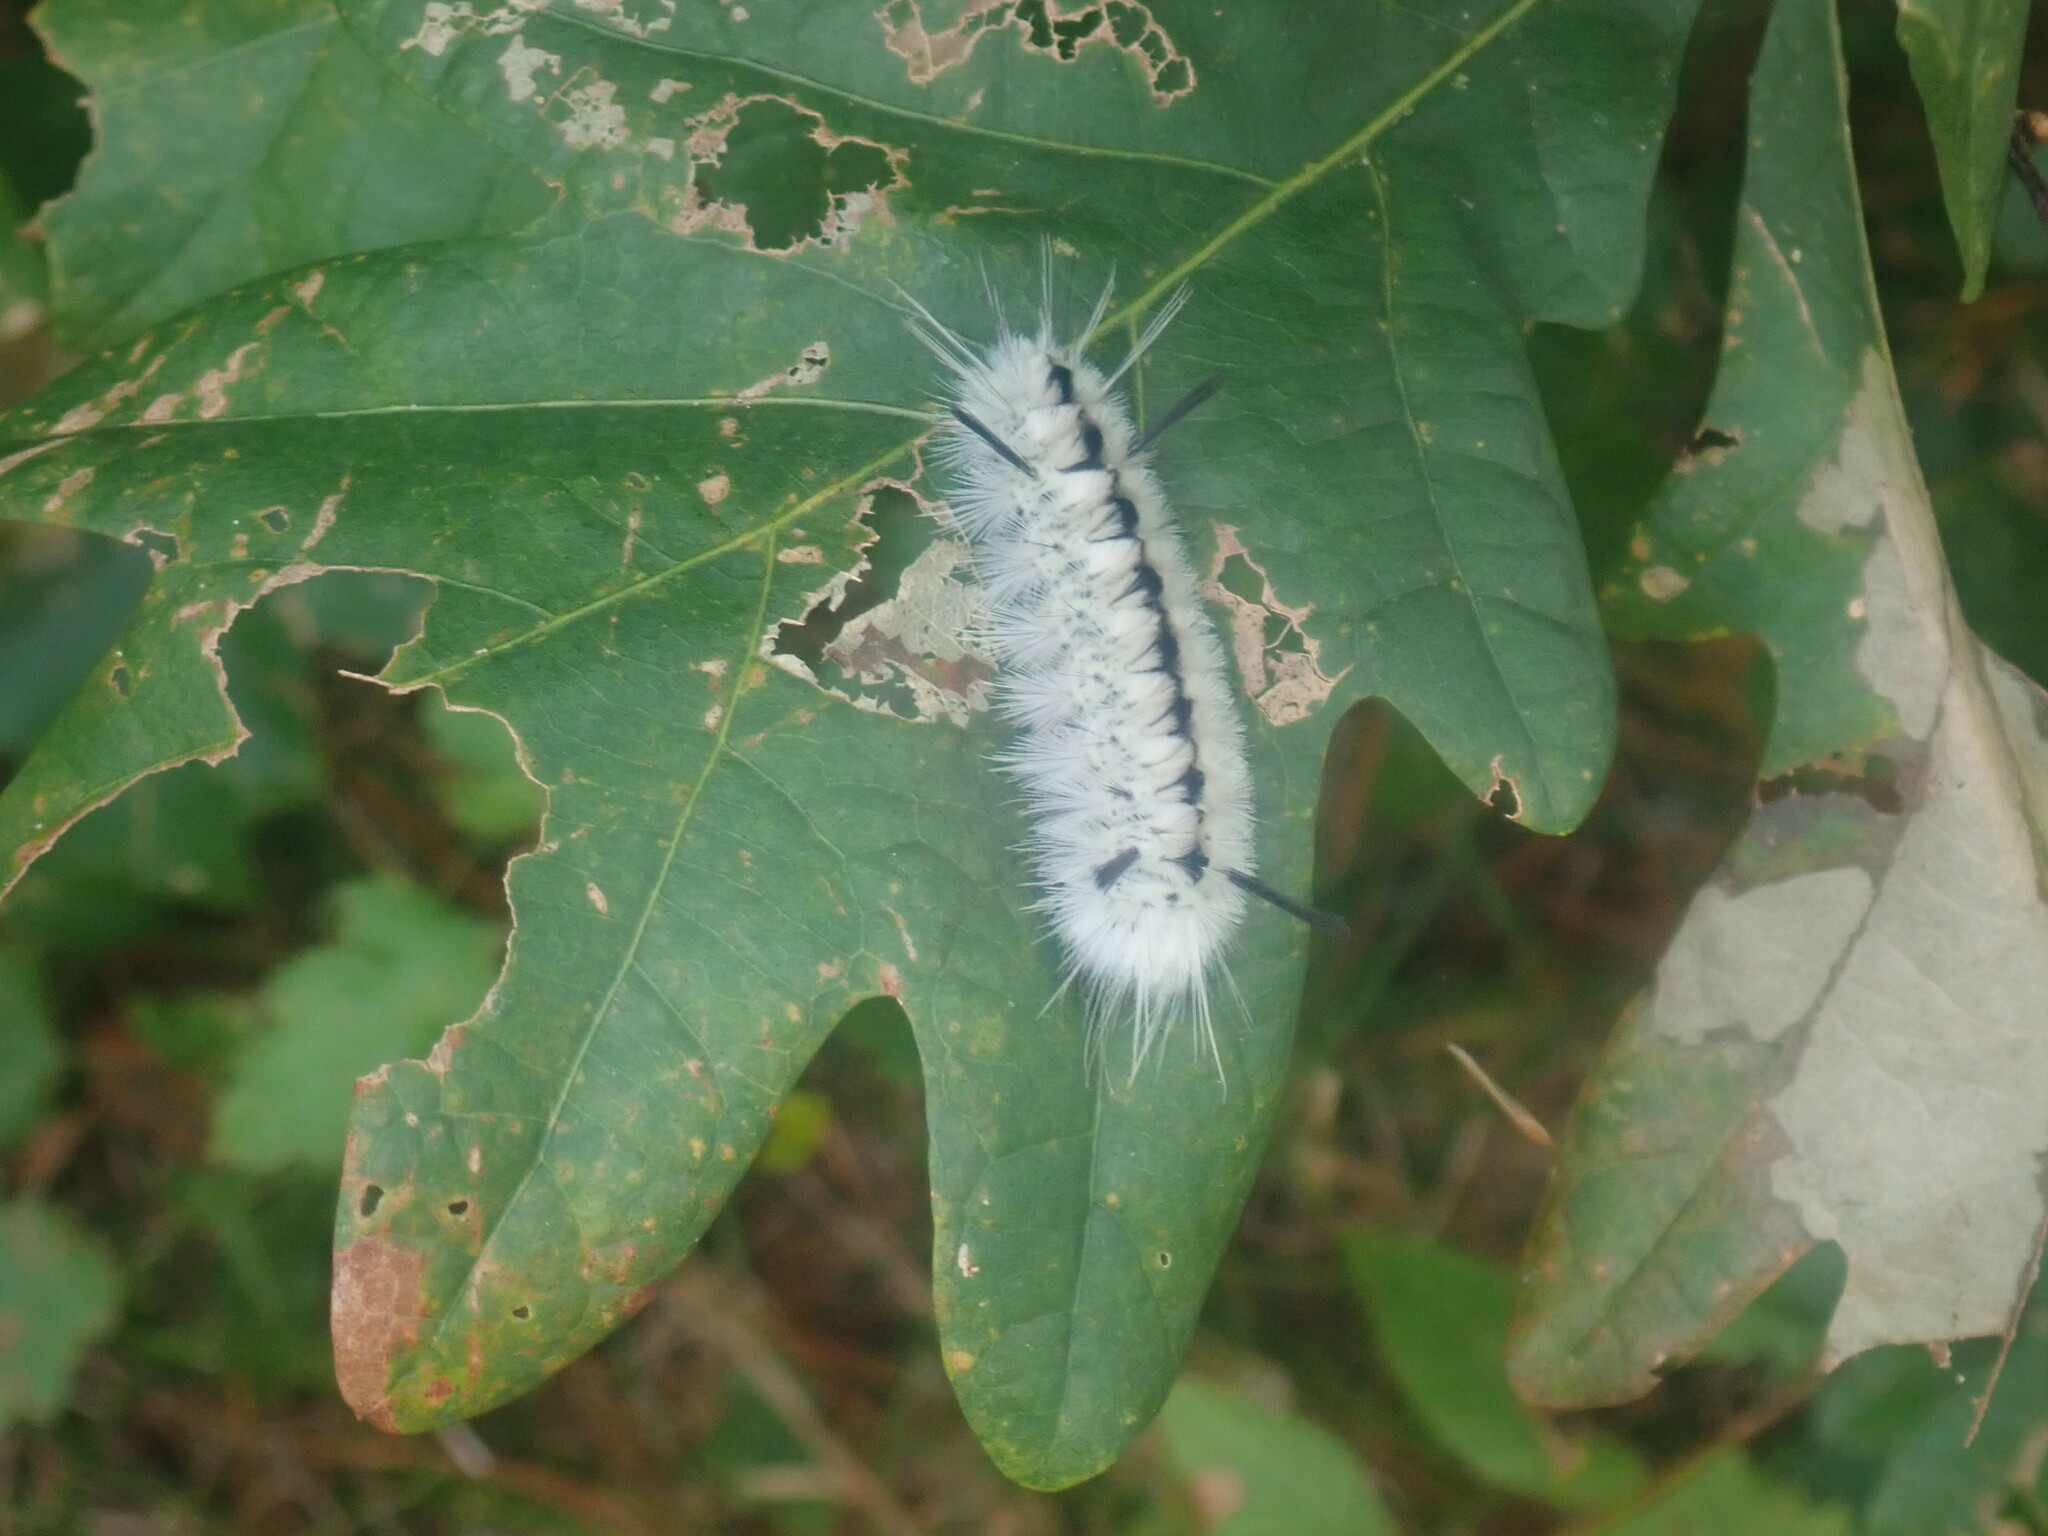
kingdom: Animalia
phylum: Arthropoda
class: Insecta
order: Lepidoptera
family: Erebidae
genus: Lophocampa
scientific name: Lophocampa caryae
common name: Hickory tussock moth
